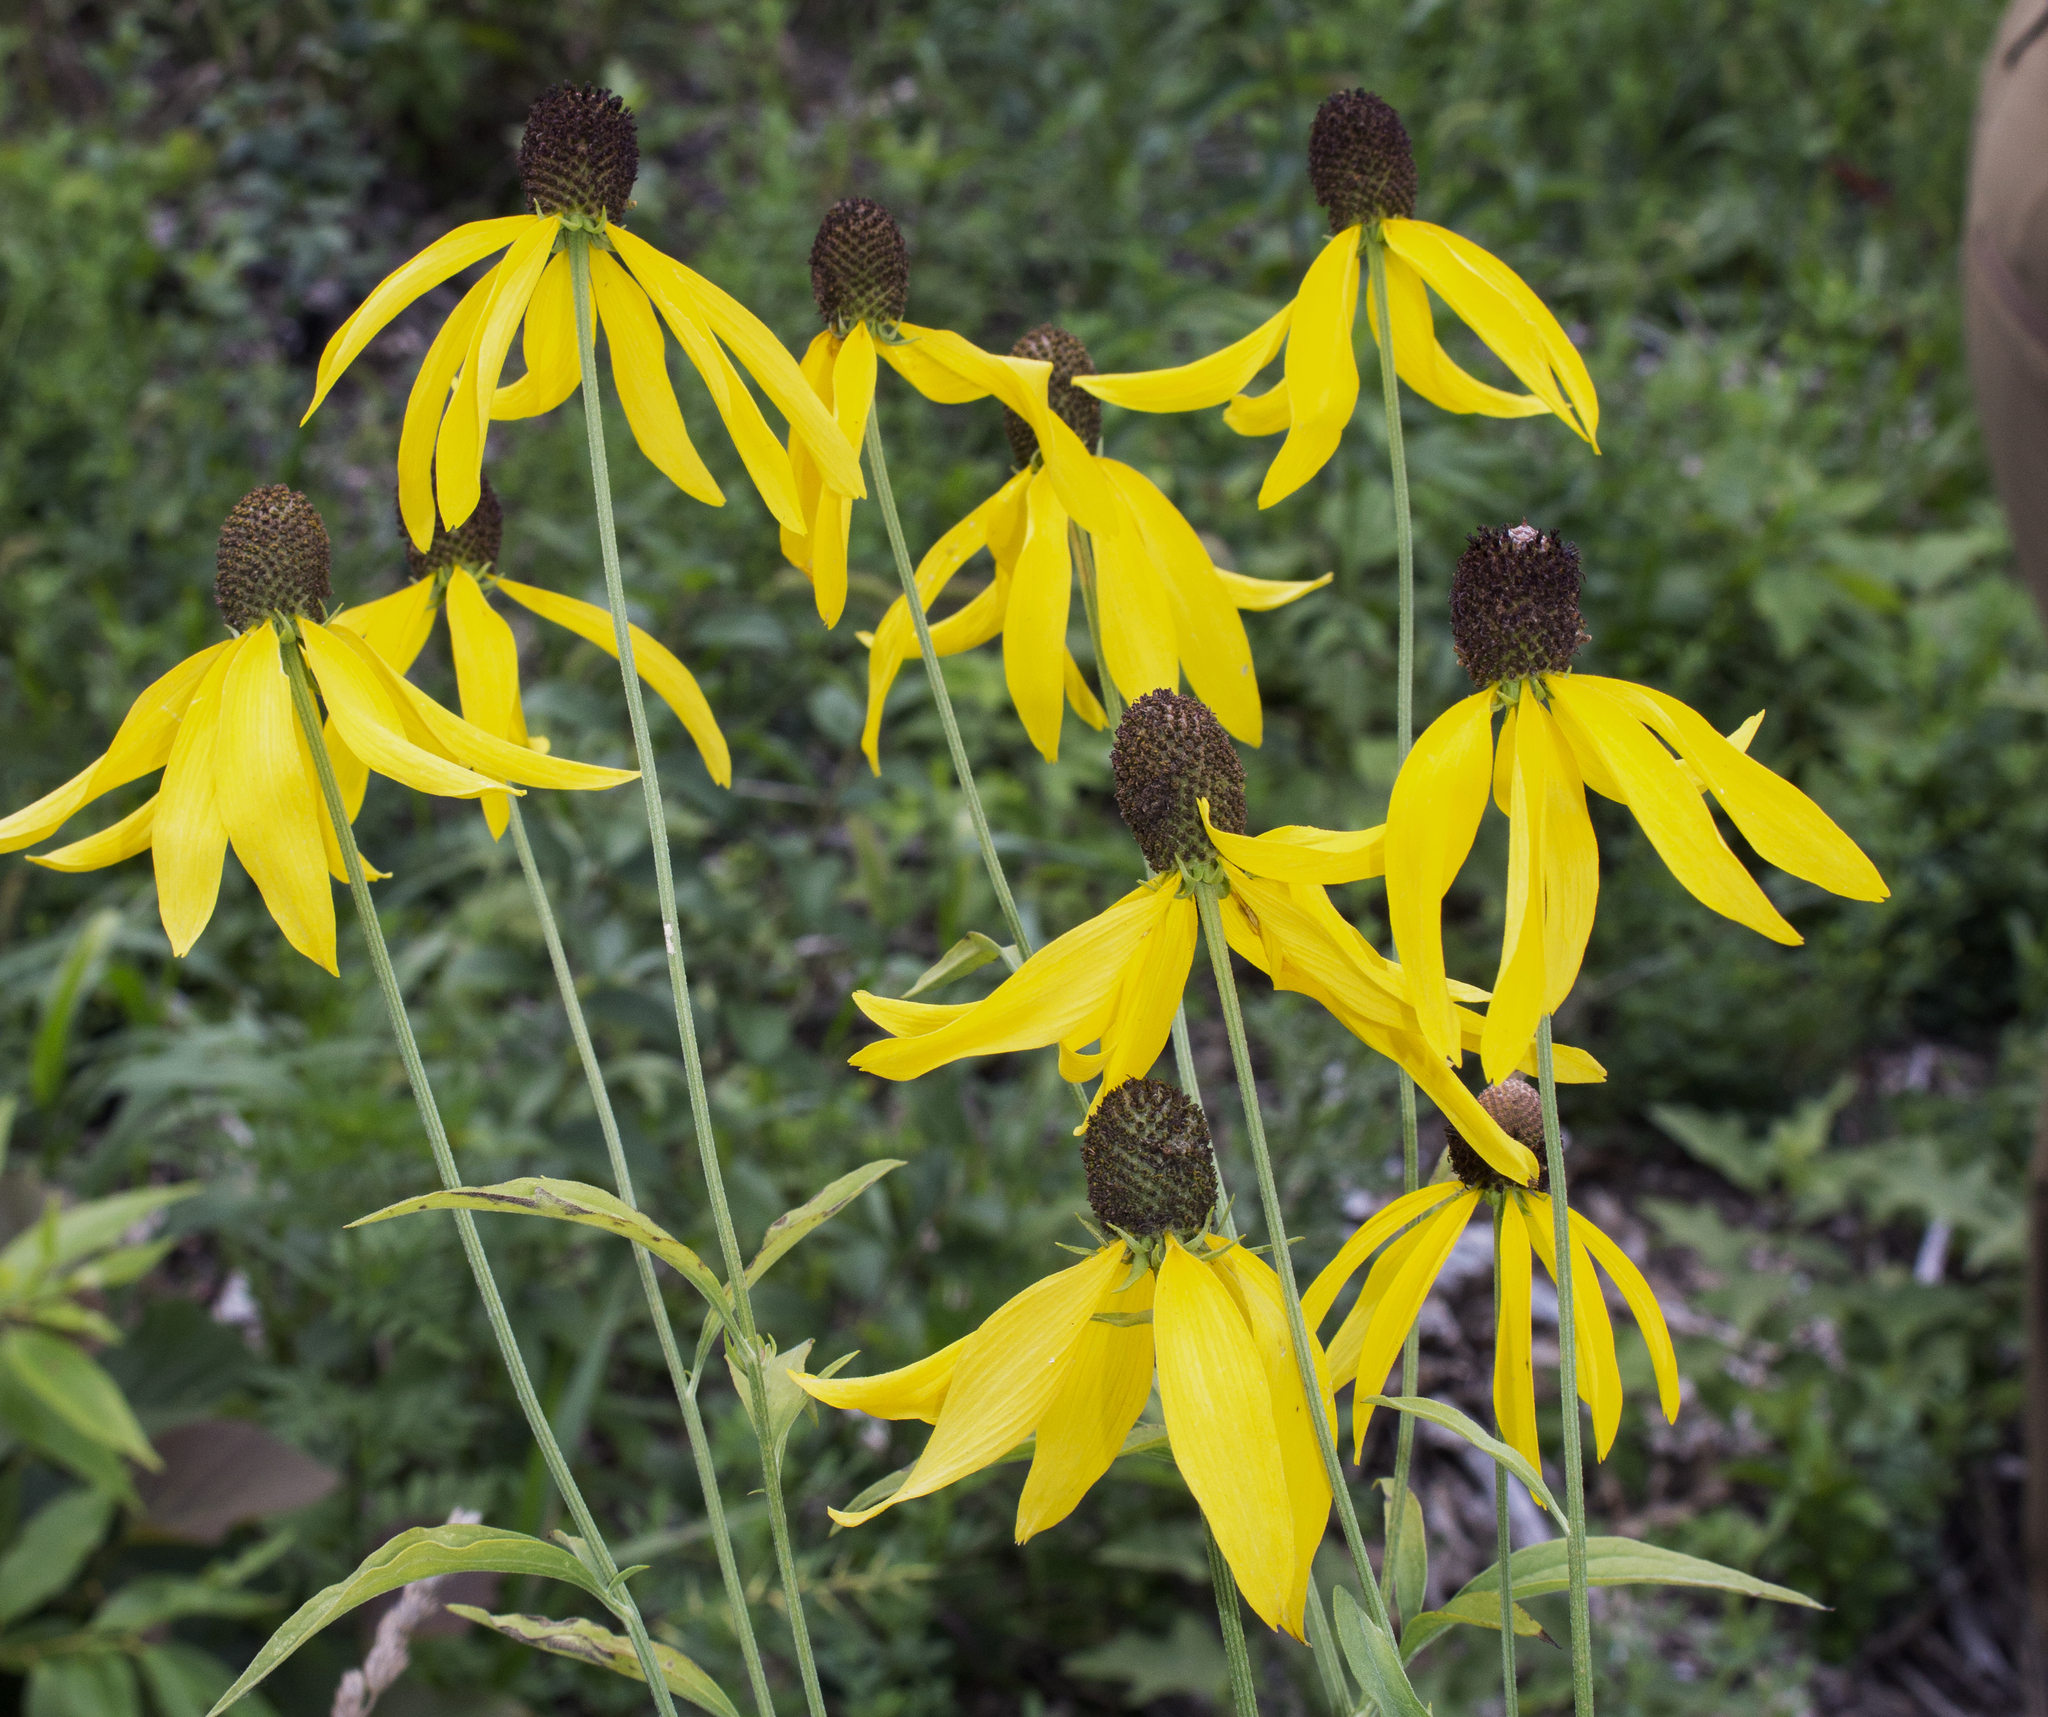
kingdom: Plantae
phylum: Tracheophyta
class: Magnoliopsida
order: Asterales
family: Asteraceae
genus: Ratibida
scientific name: Ratibida pinnata
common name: Drooping prairie-coneflower
